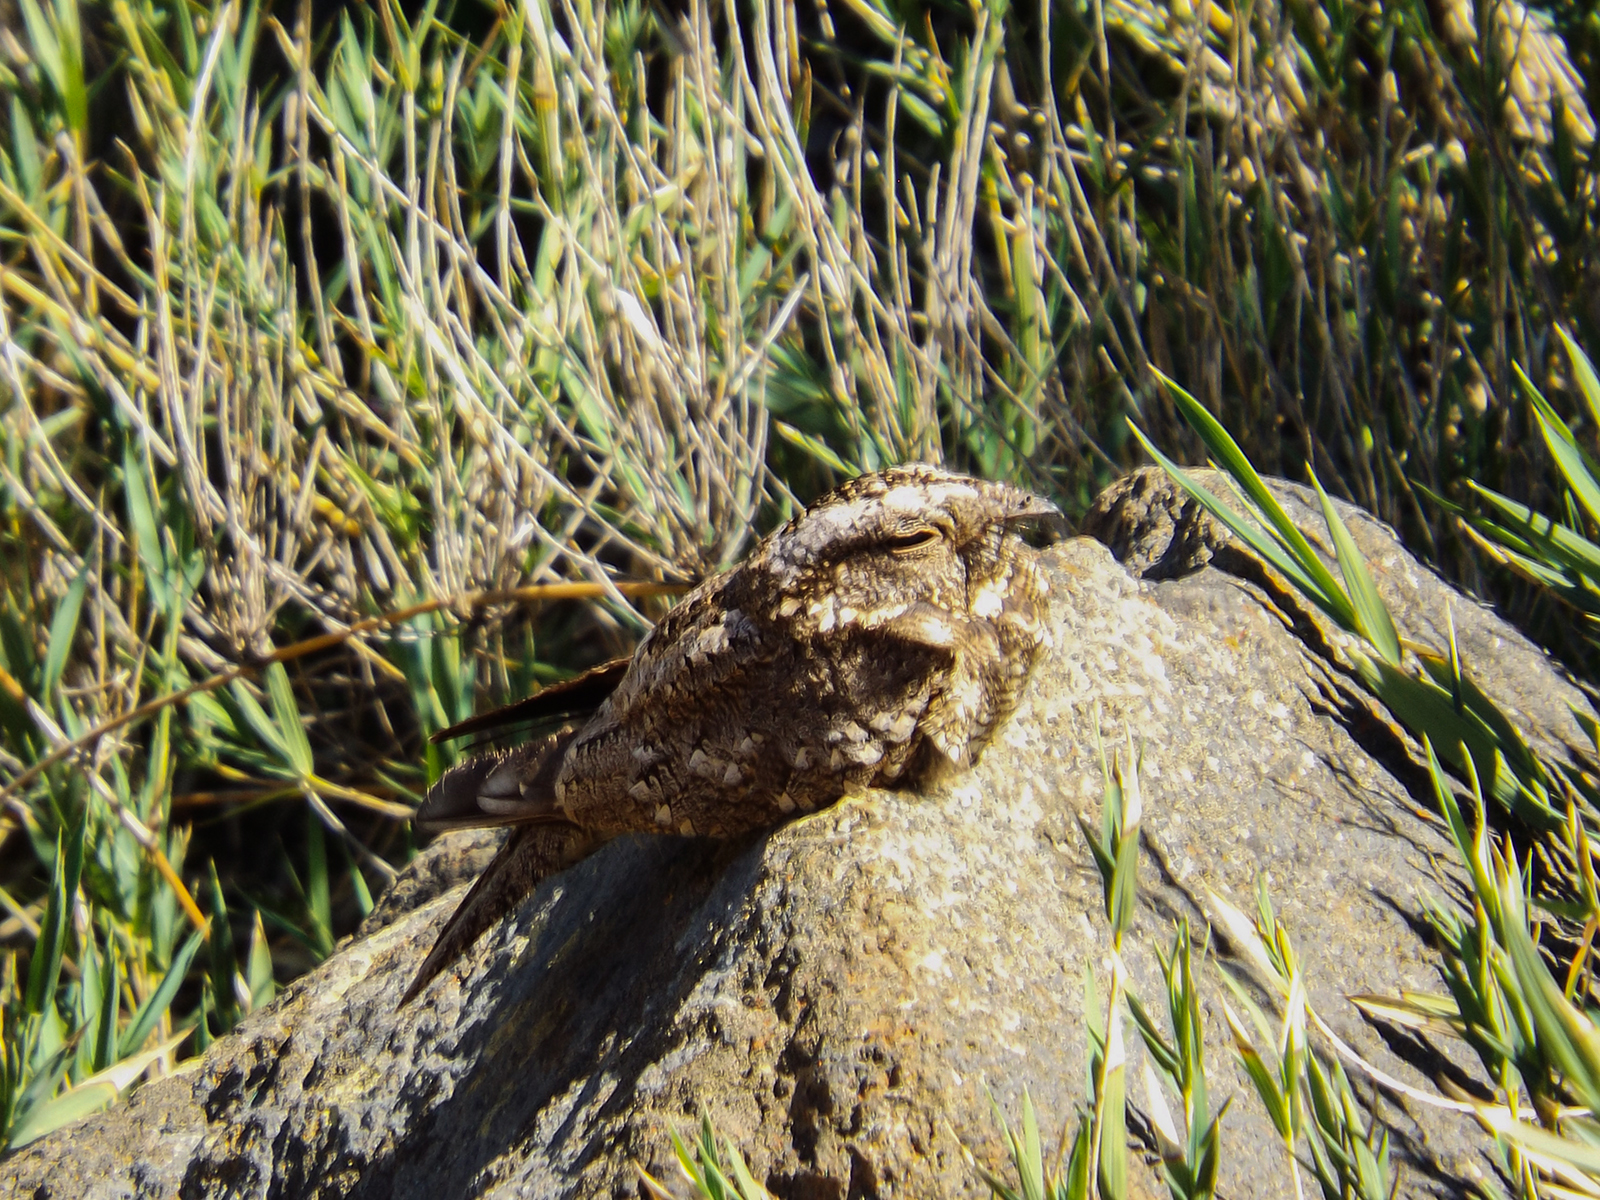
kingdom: Animalia
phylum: Chordata
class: Aves
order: Caprimulgiformes
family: Caprimulgidae
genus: Systellura
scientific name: Systellura longirostris
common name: Band-winged nightjar
